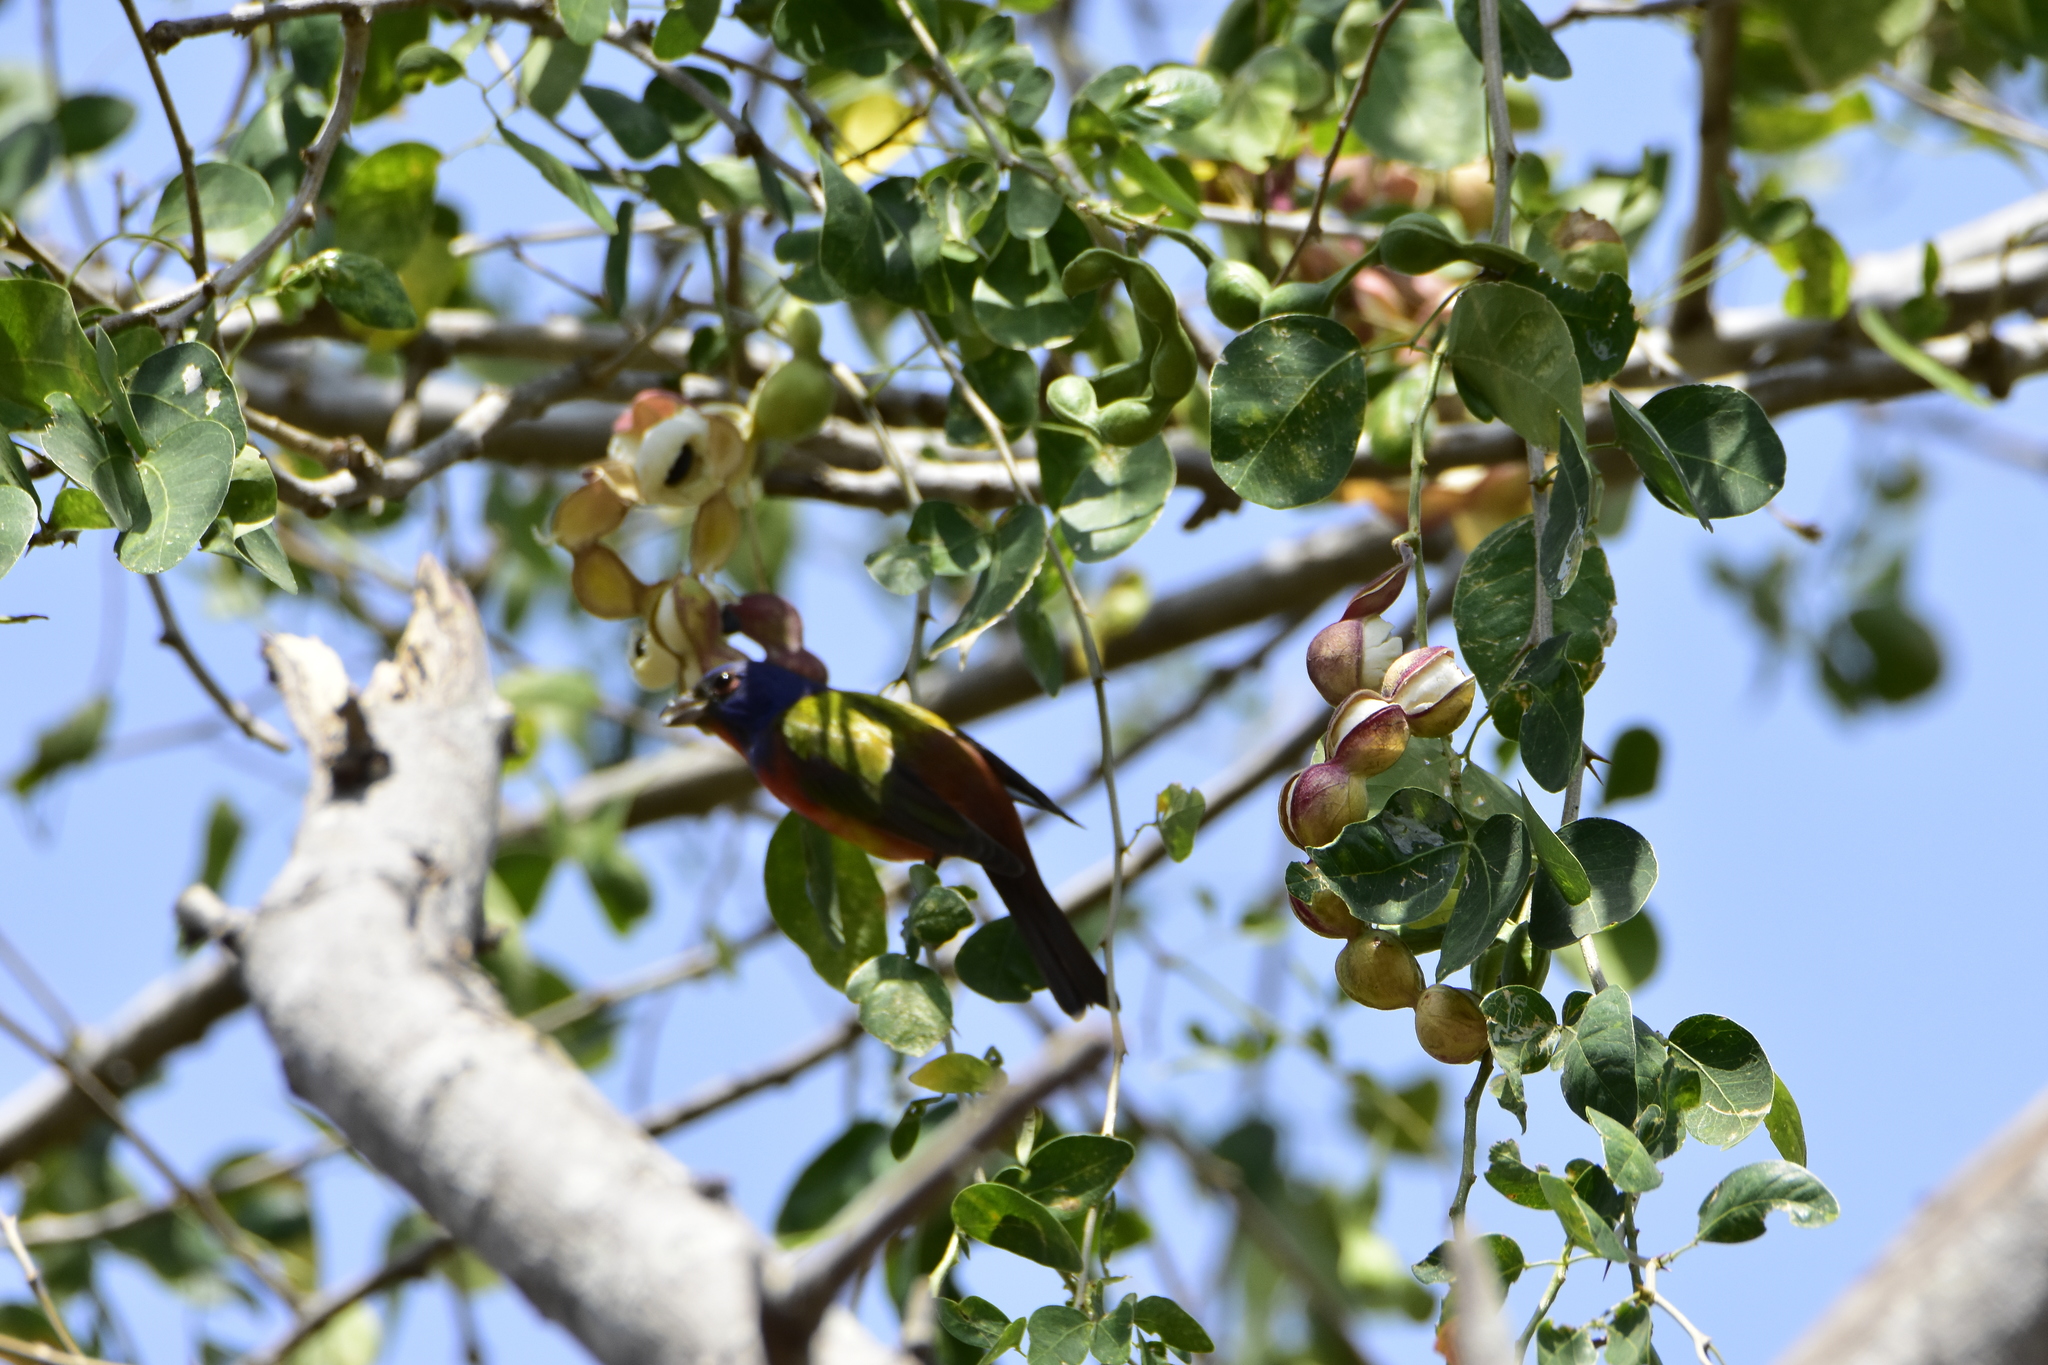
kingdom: Animalia
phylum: Chordata
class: Aves
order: Passeriformes
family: Cardinalidae
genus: Passerina
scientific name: Passerina ciris
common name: Painted bunting
